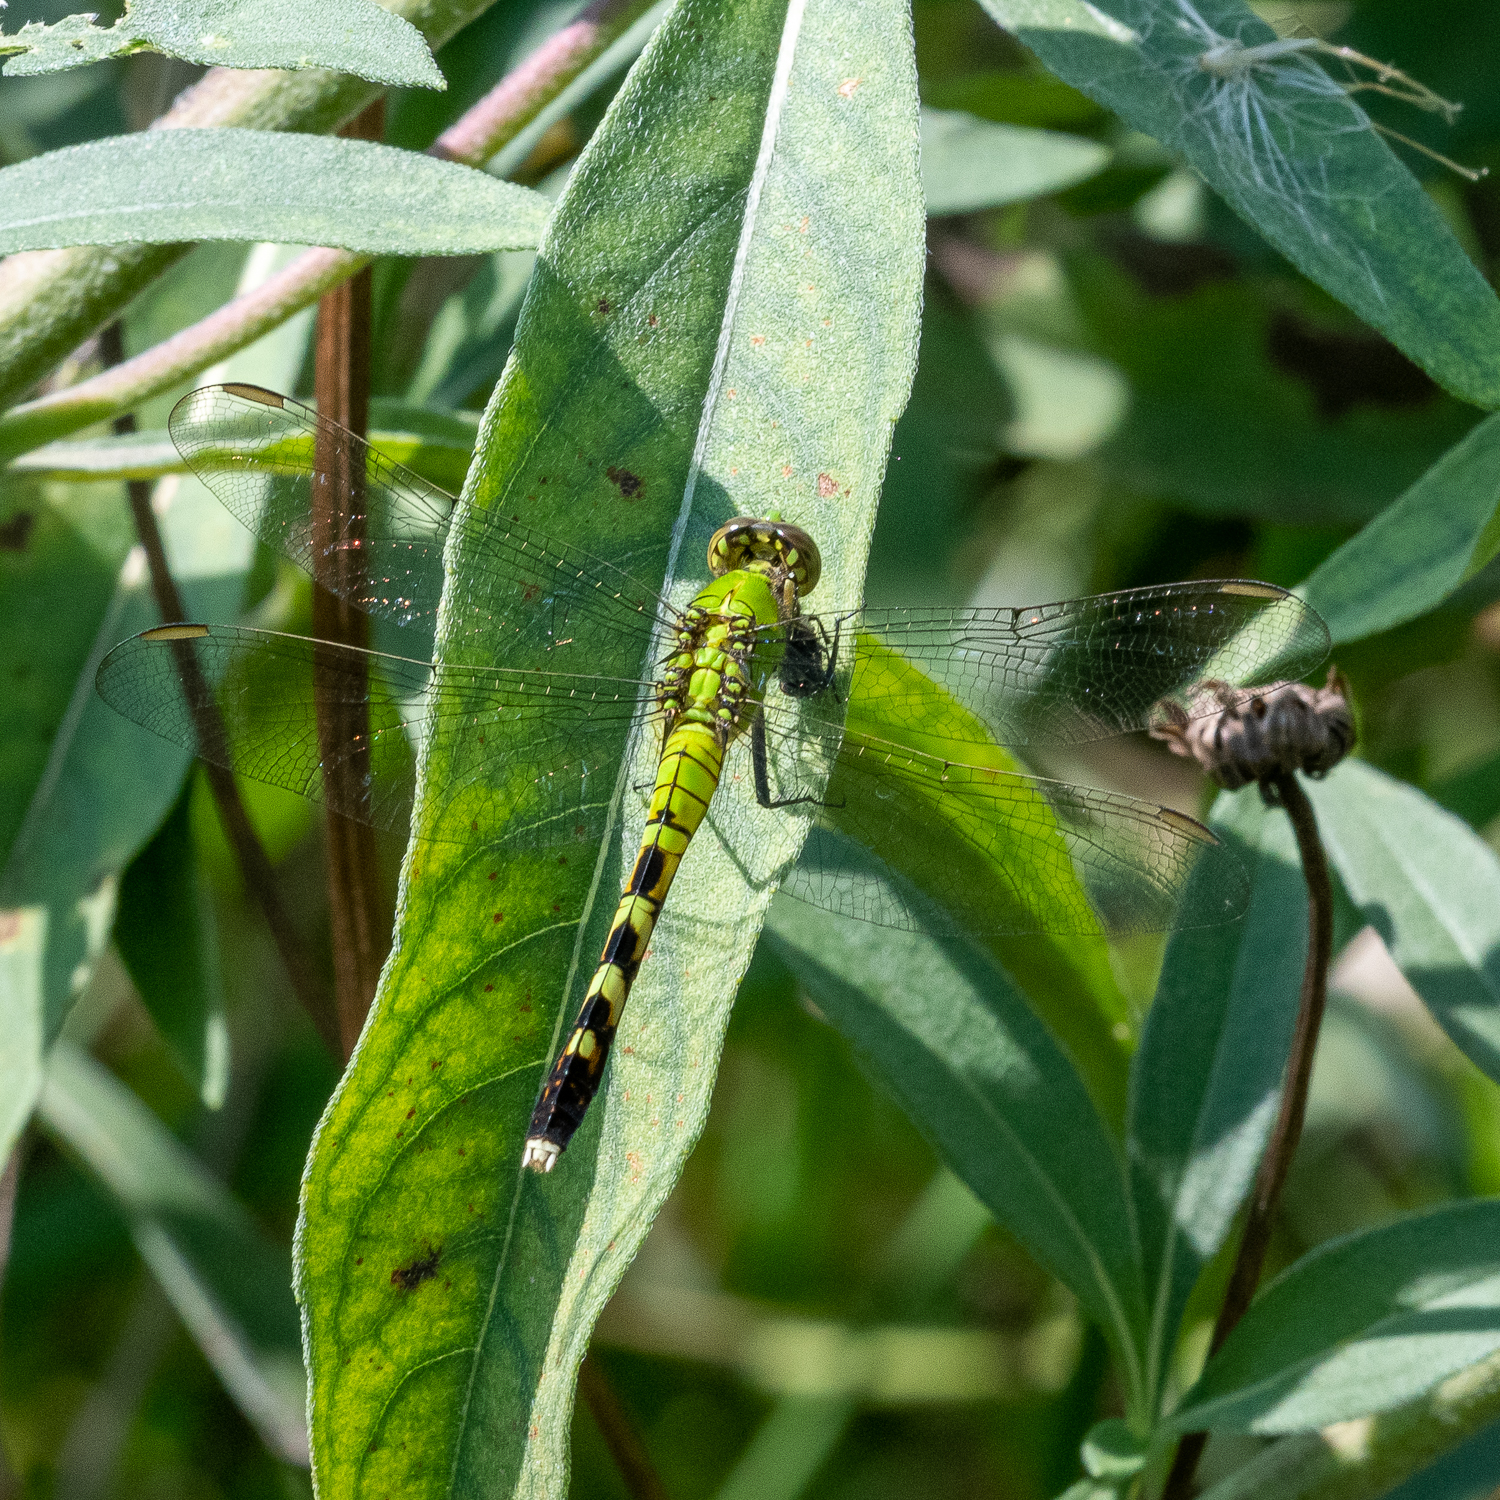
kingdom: Animalia
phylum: Arthropoda
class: Insecta
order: Odonata
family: Libellulidae
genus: Erythemis
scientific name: Erythemis simplicicollis
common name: Eastern pondhawk
